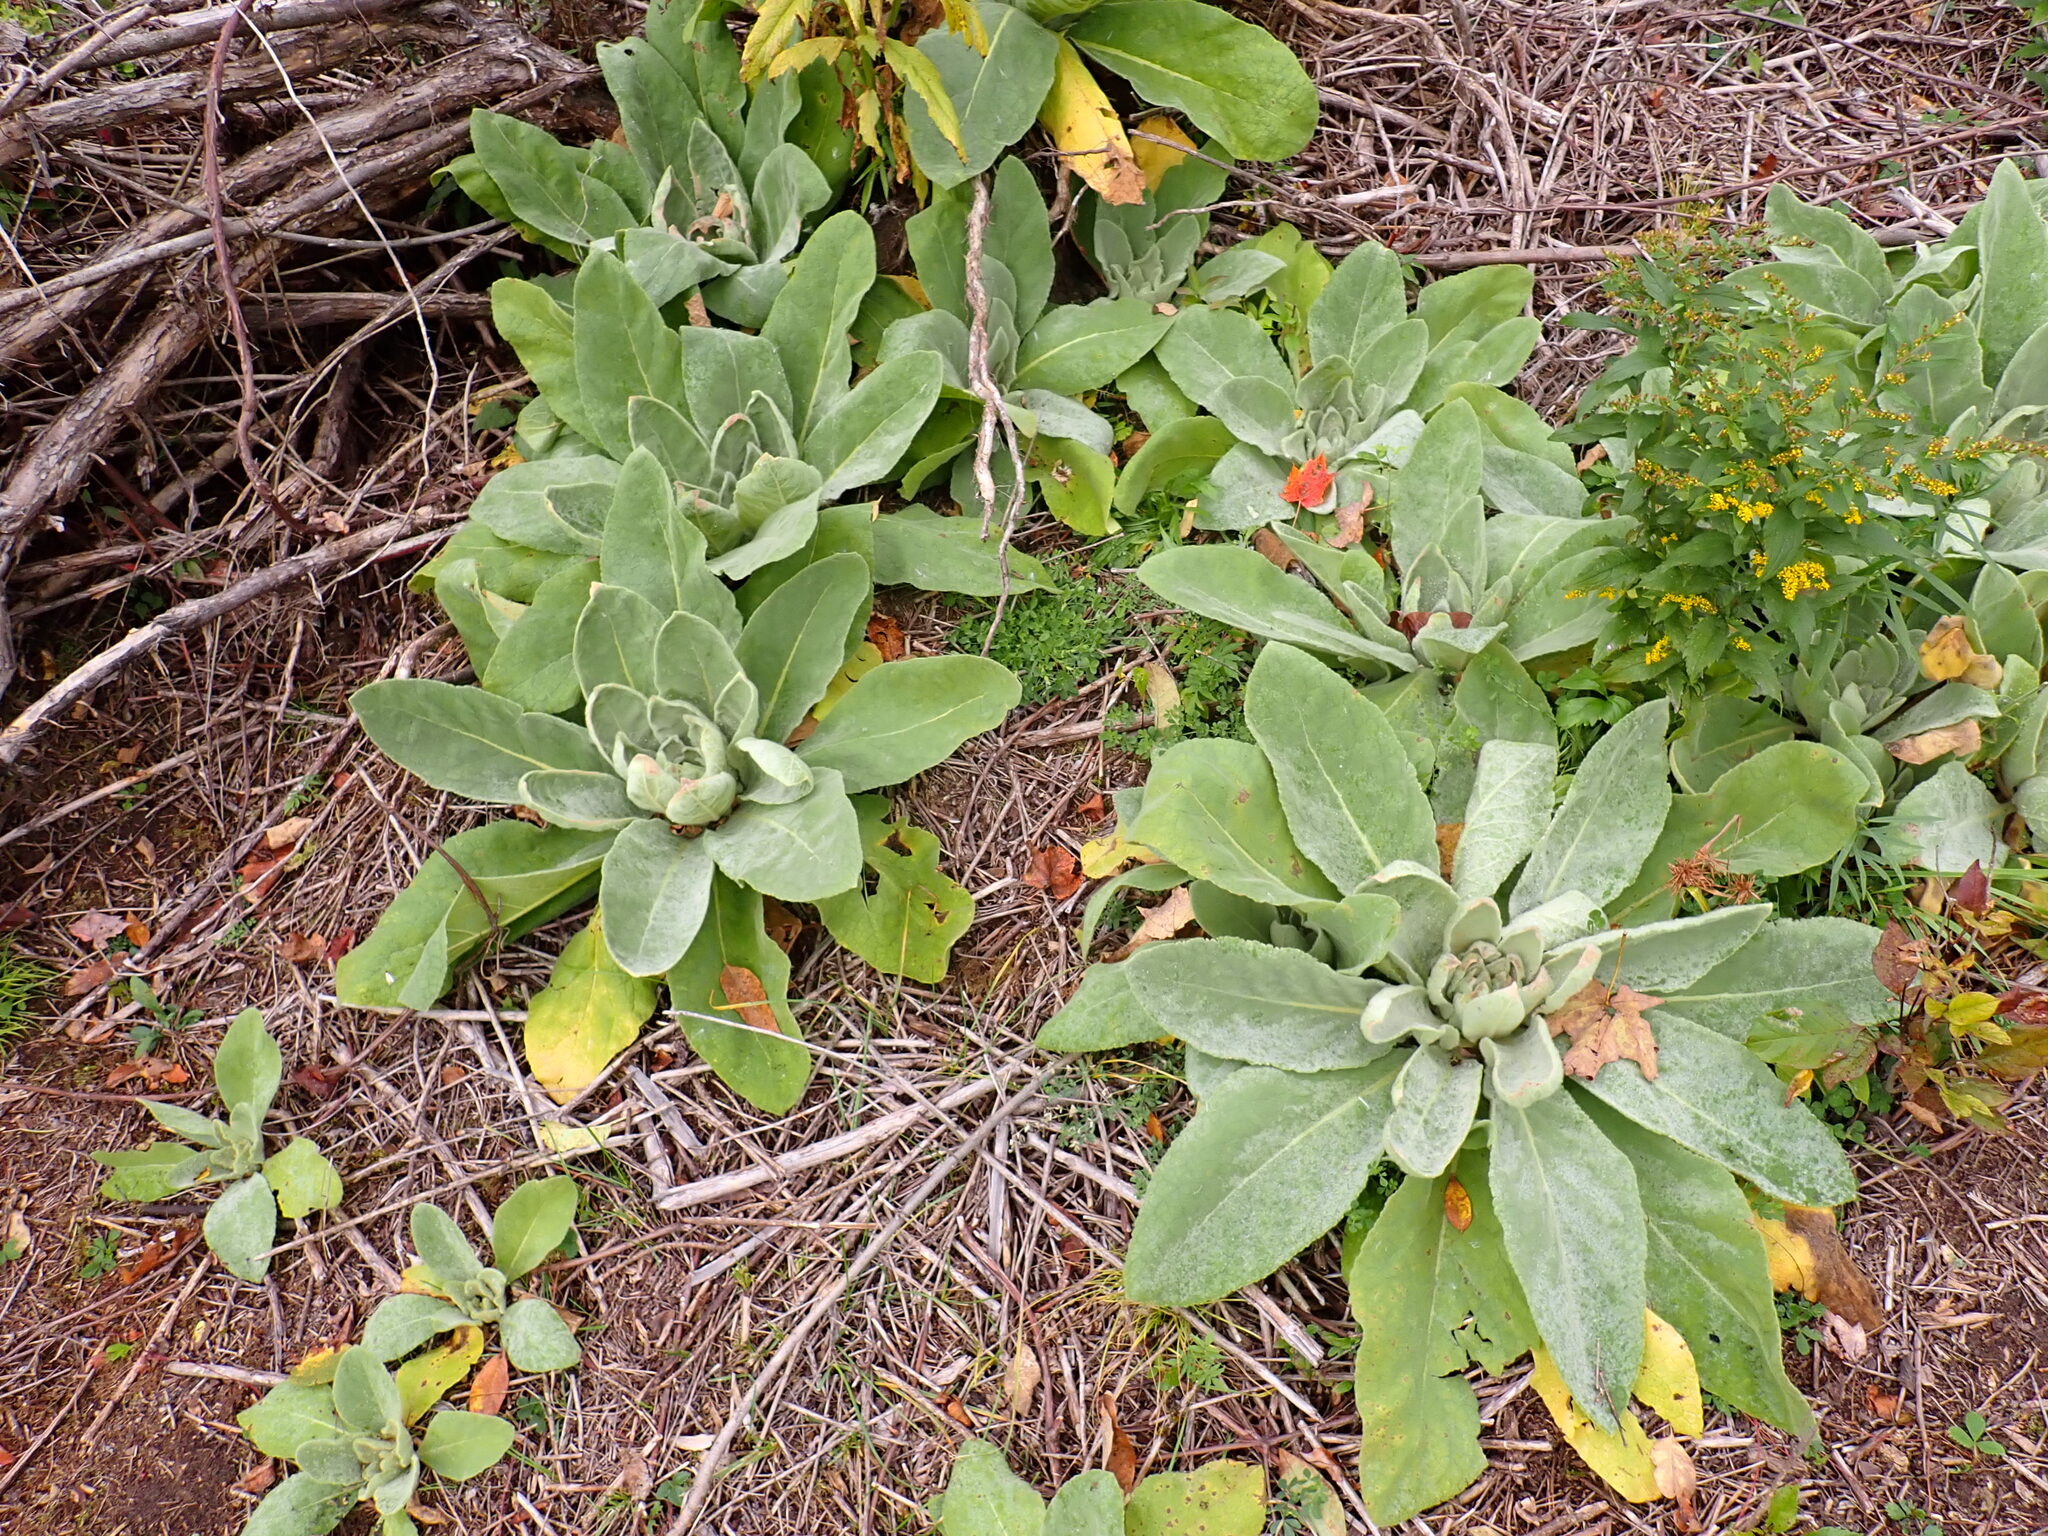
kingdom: Plantae
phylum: Tracheophyta
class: Magnoliopsida
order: Lamiales
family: Scrophulariaceae
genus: Verbascum
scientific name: Verbascum thapsus
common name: Common mullein
